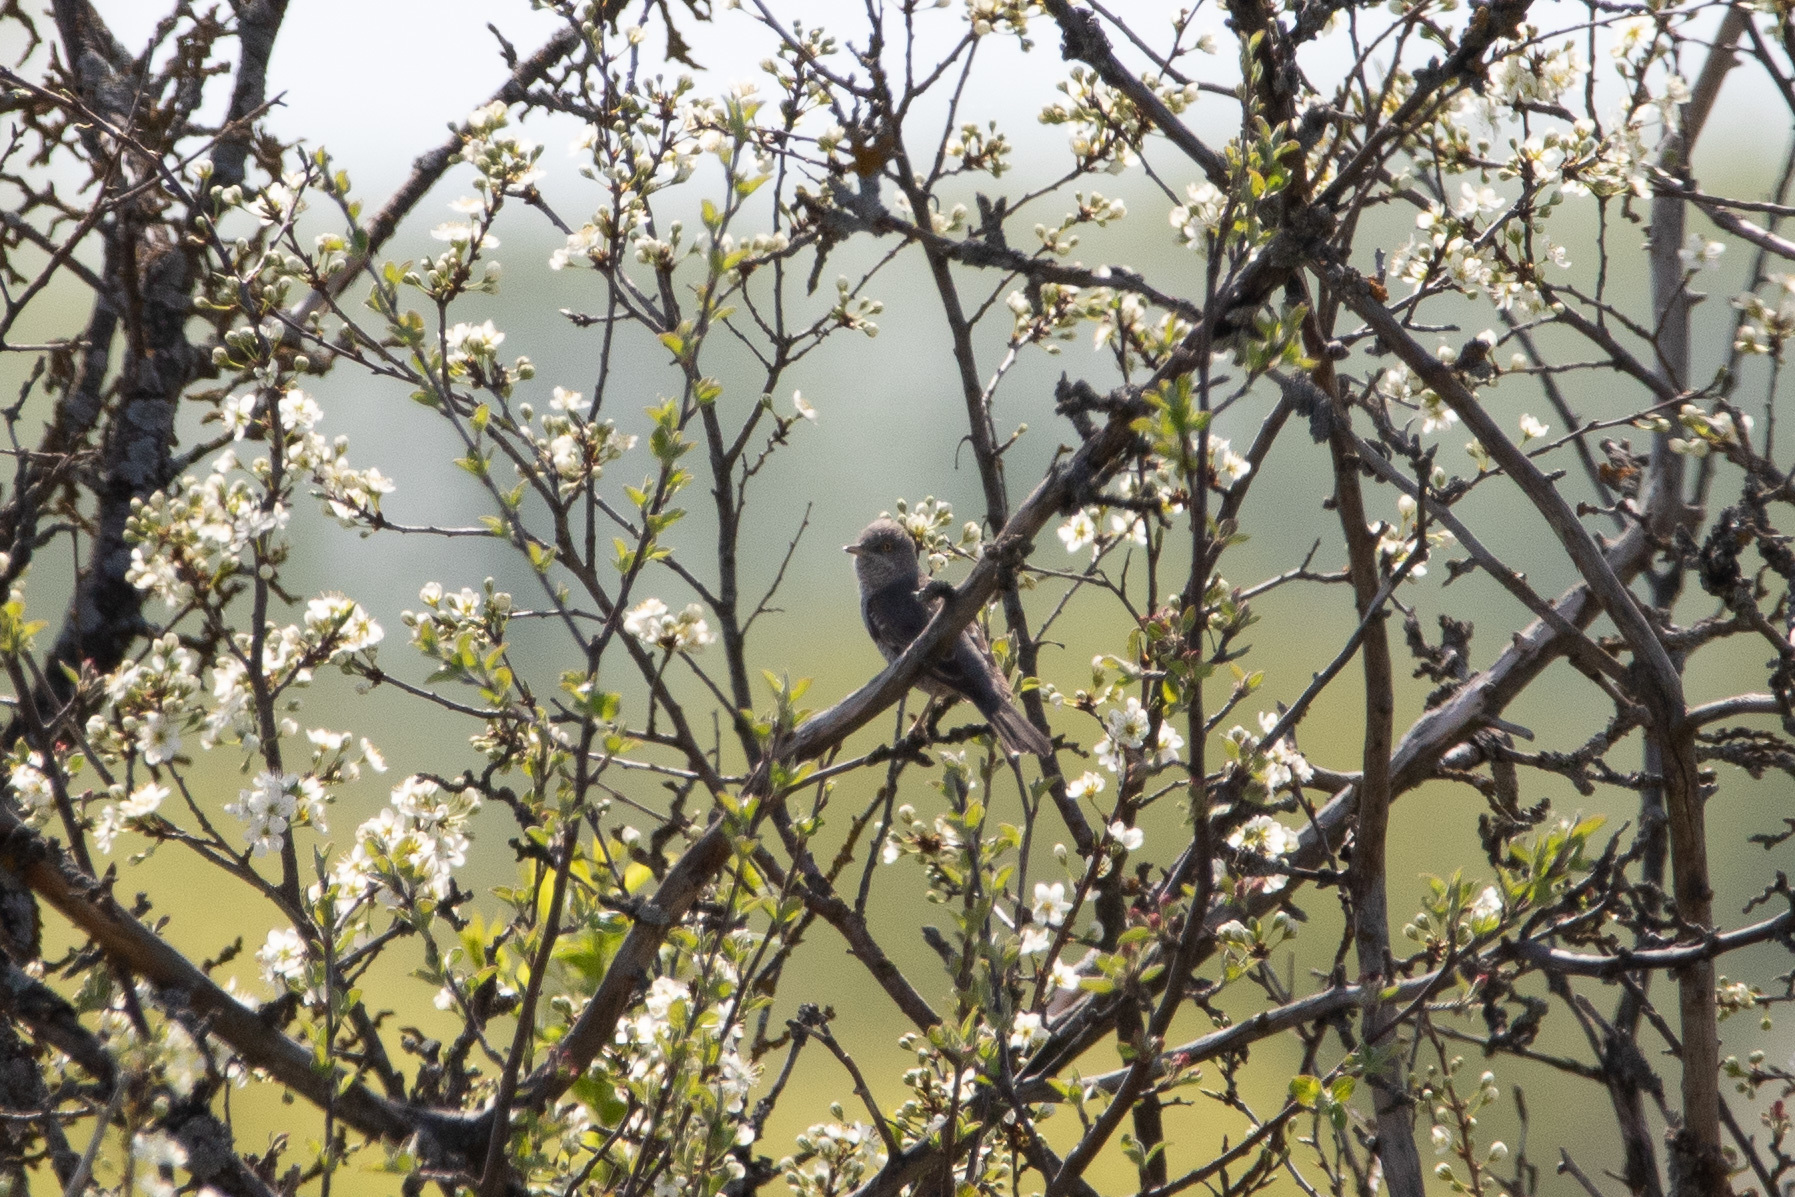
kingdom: Animalia
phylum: Chordata
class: Aves
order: Passeriformes
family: Sylviidae
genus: Sylvia
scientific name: Sylvia nisoria
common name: Barred warbler
